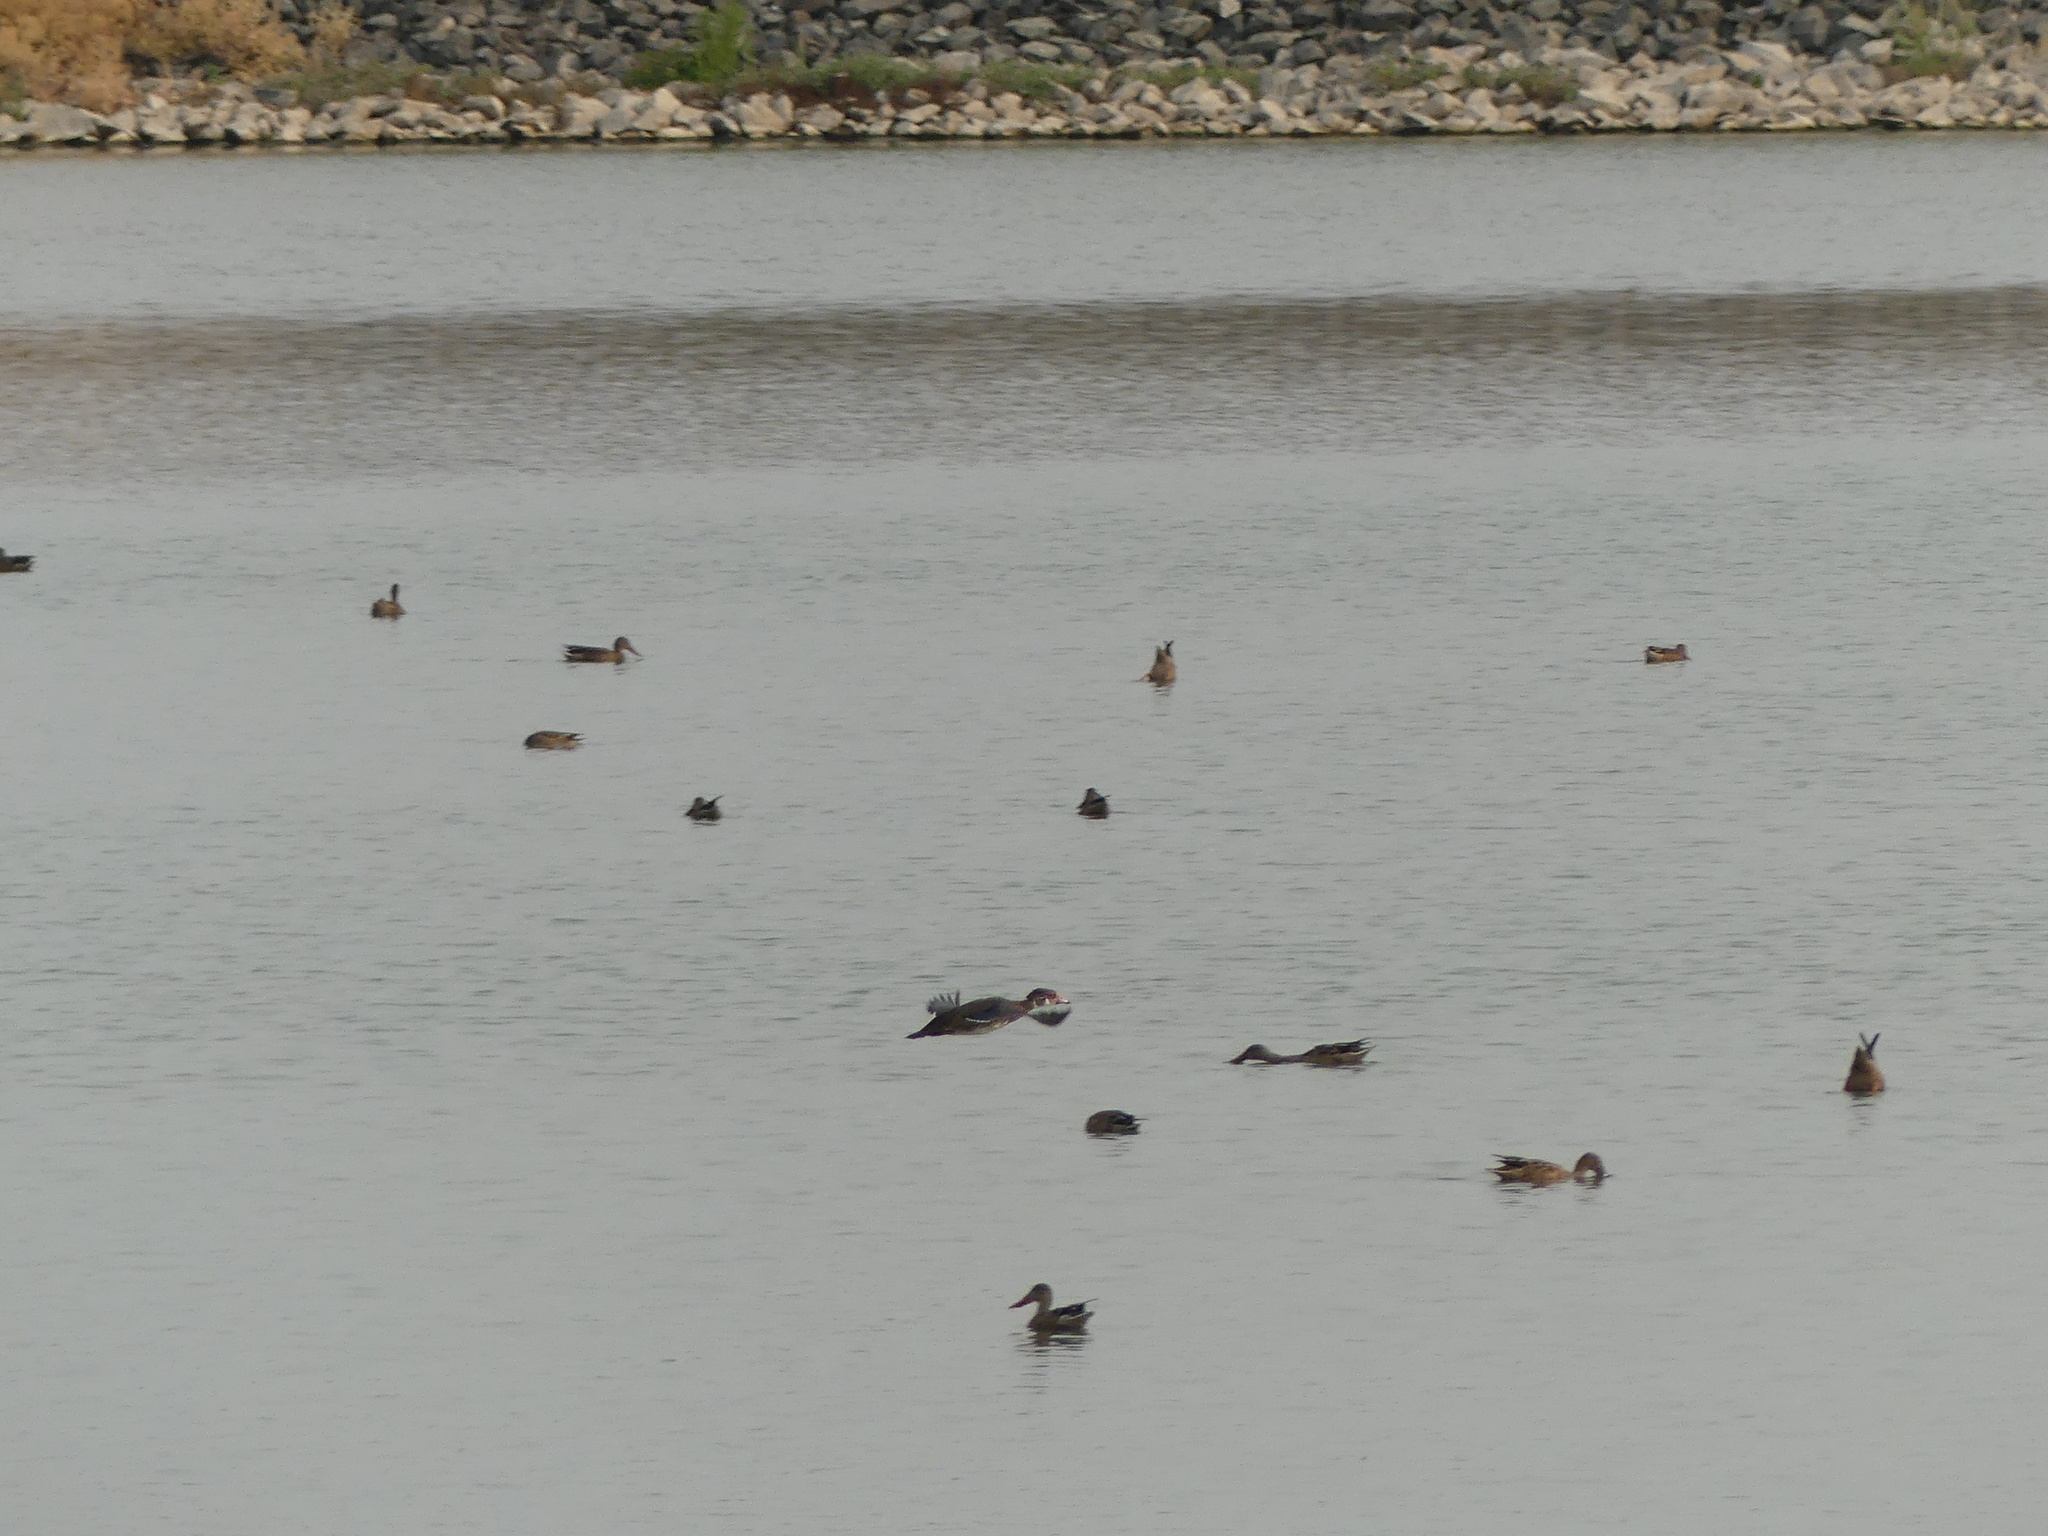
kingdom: Animalia
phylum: Chordata
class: Aves
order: Anseriformes
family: Anatidae
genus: Aix
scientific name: Aix sponsa
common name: Wood duck
